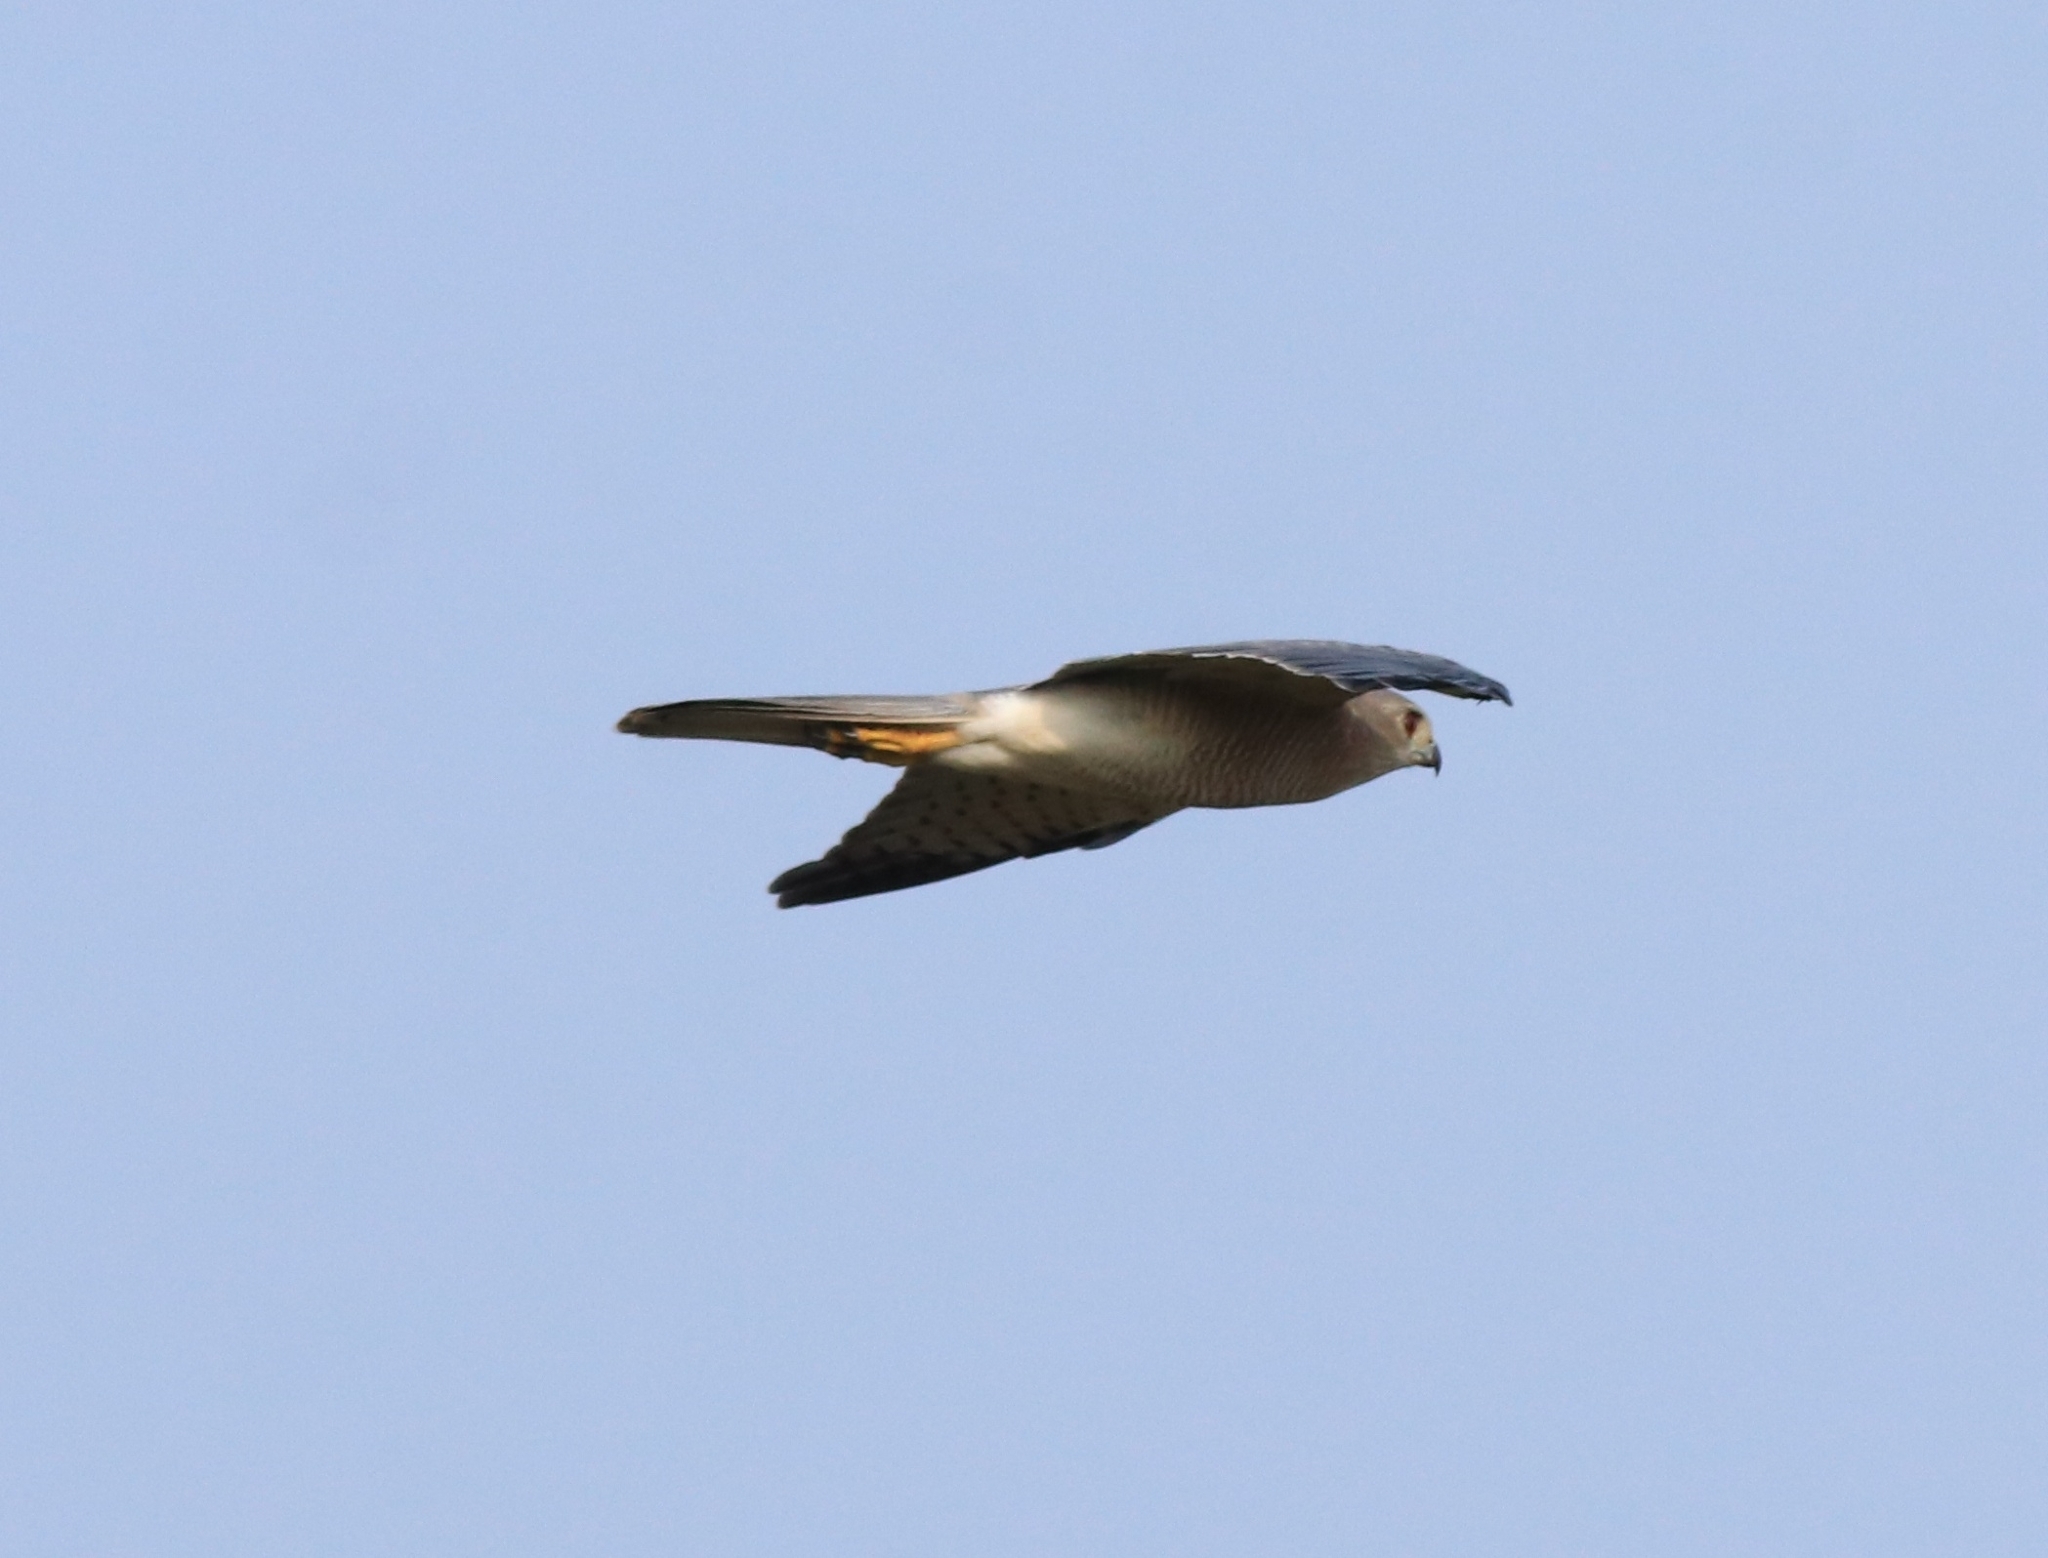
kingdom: Animalia
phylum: Chordata
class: Aves
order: Accipitriformes
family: Accipitridae
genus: Accipiter
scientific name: Accipiter badius
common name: Shikra
